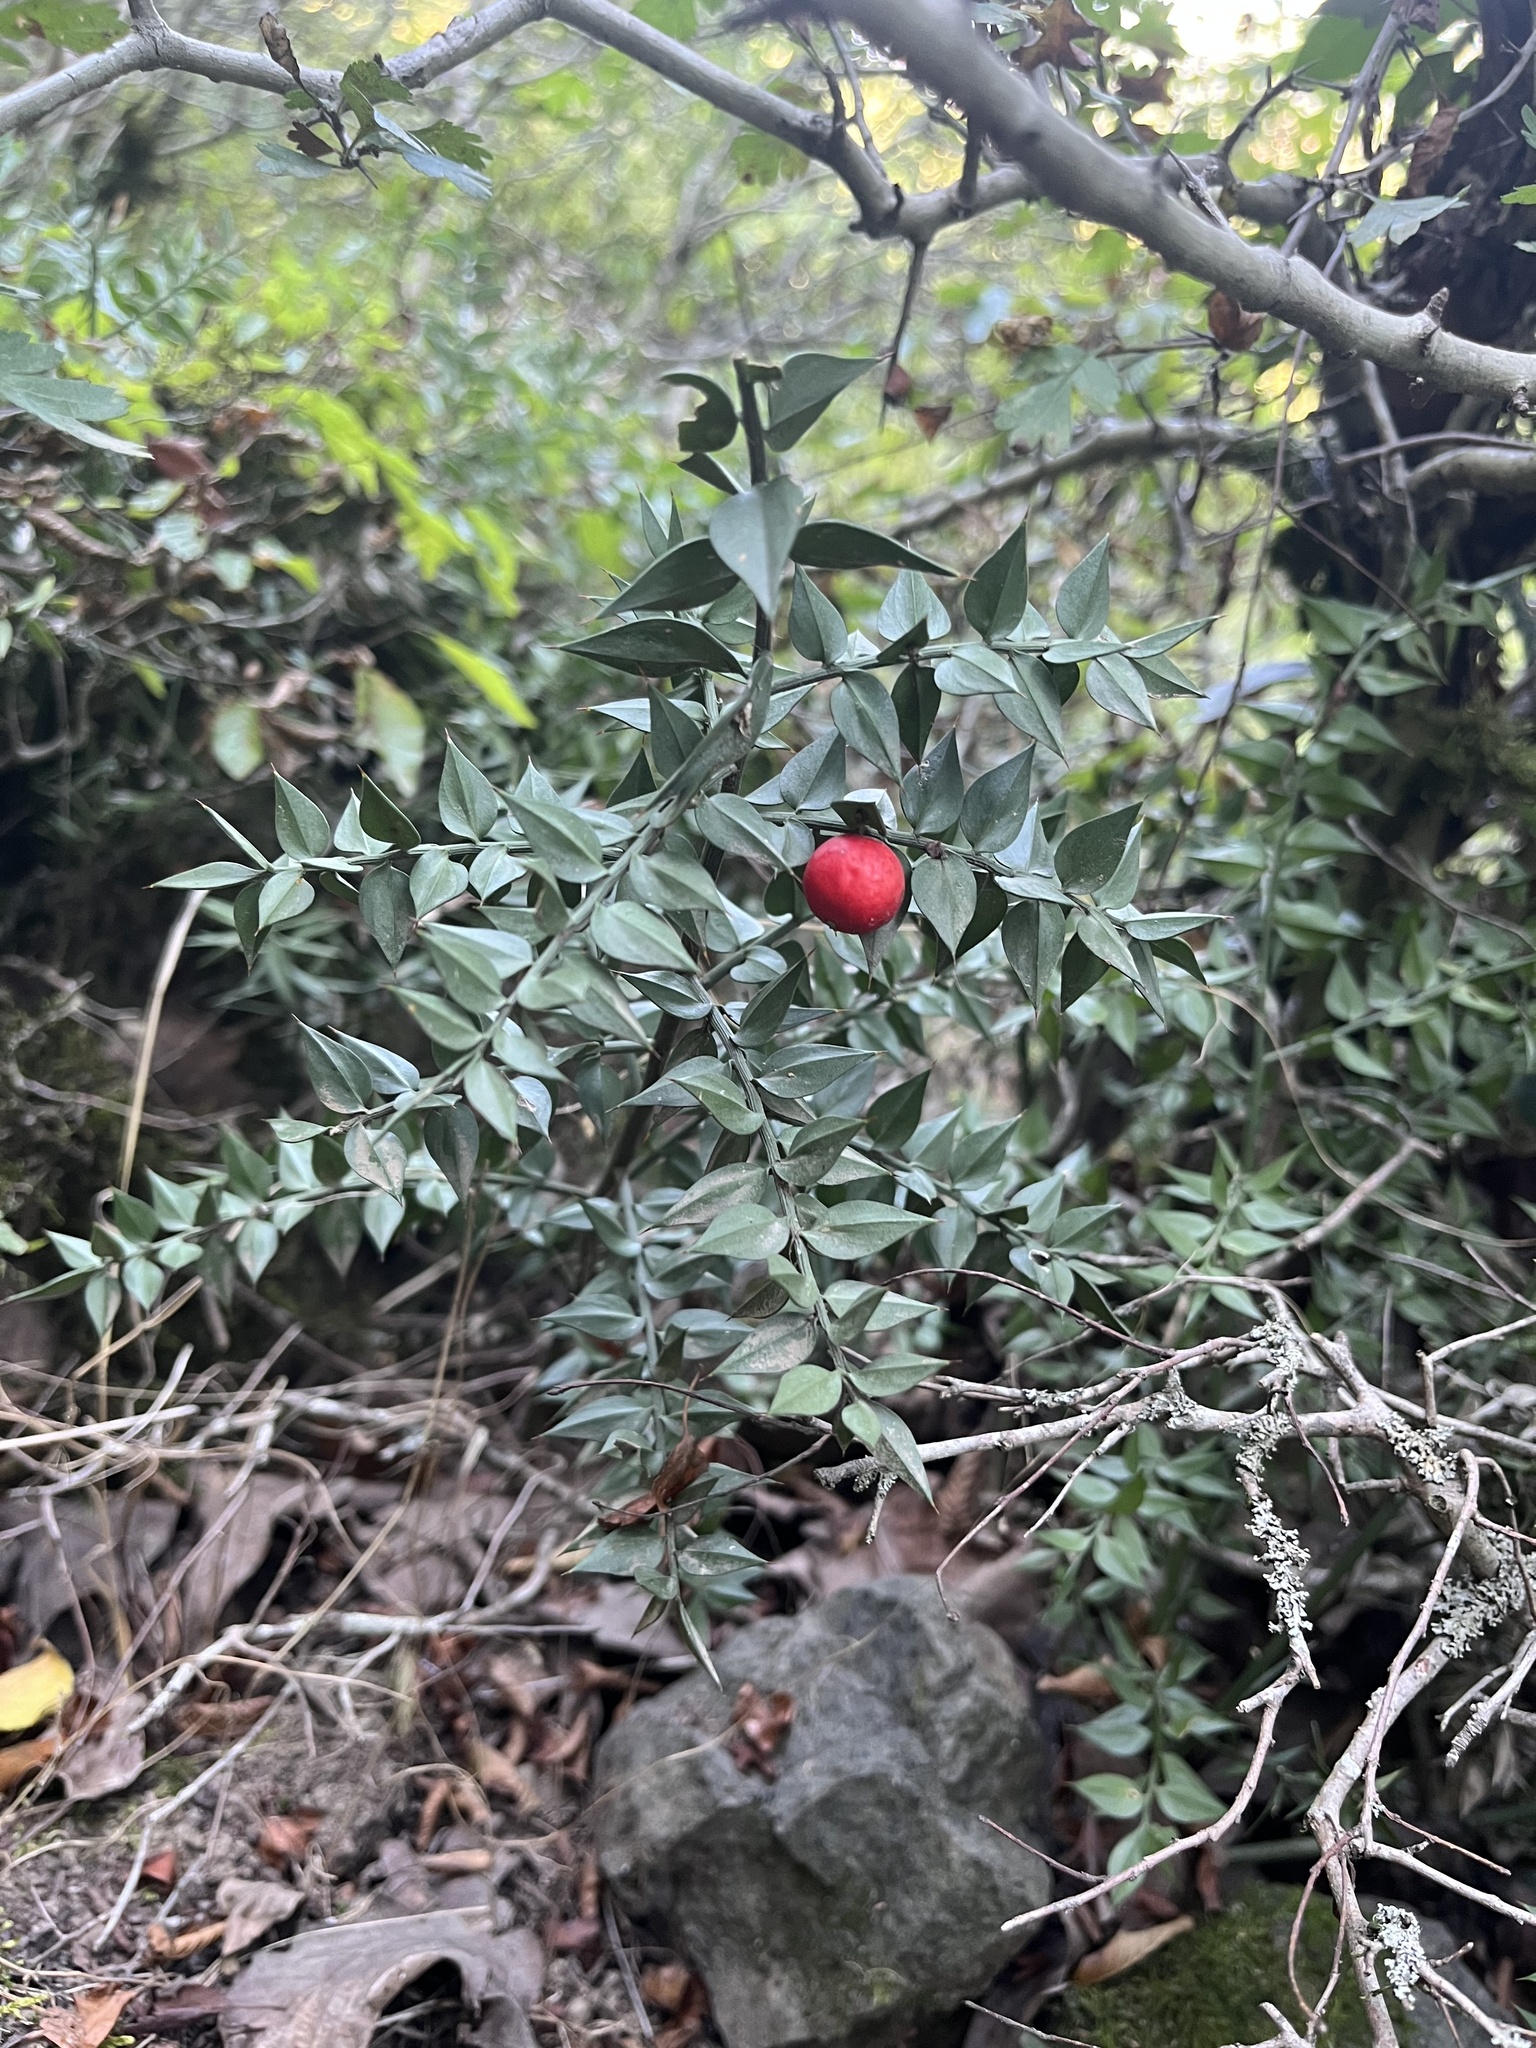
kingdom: Plantae
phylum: Tracheophyta
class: Liliopsida
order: Asparagales
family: Asparagaceae
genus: Ruscus
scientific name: Ruscus aculeatus
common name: Butcher's-broom
